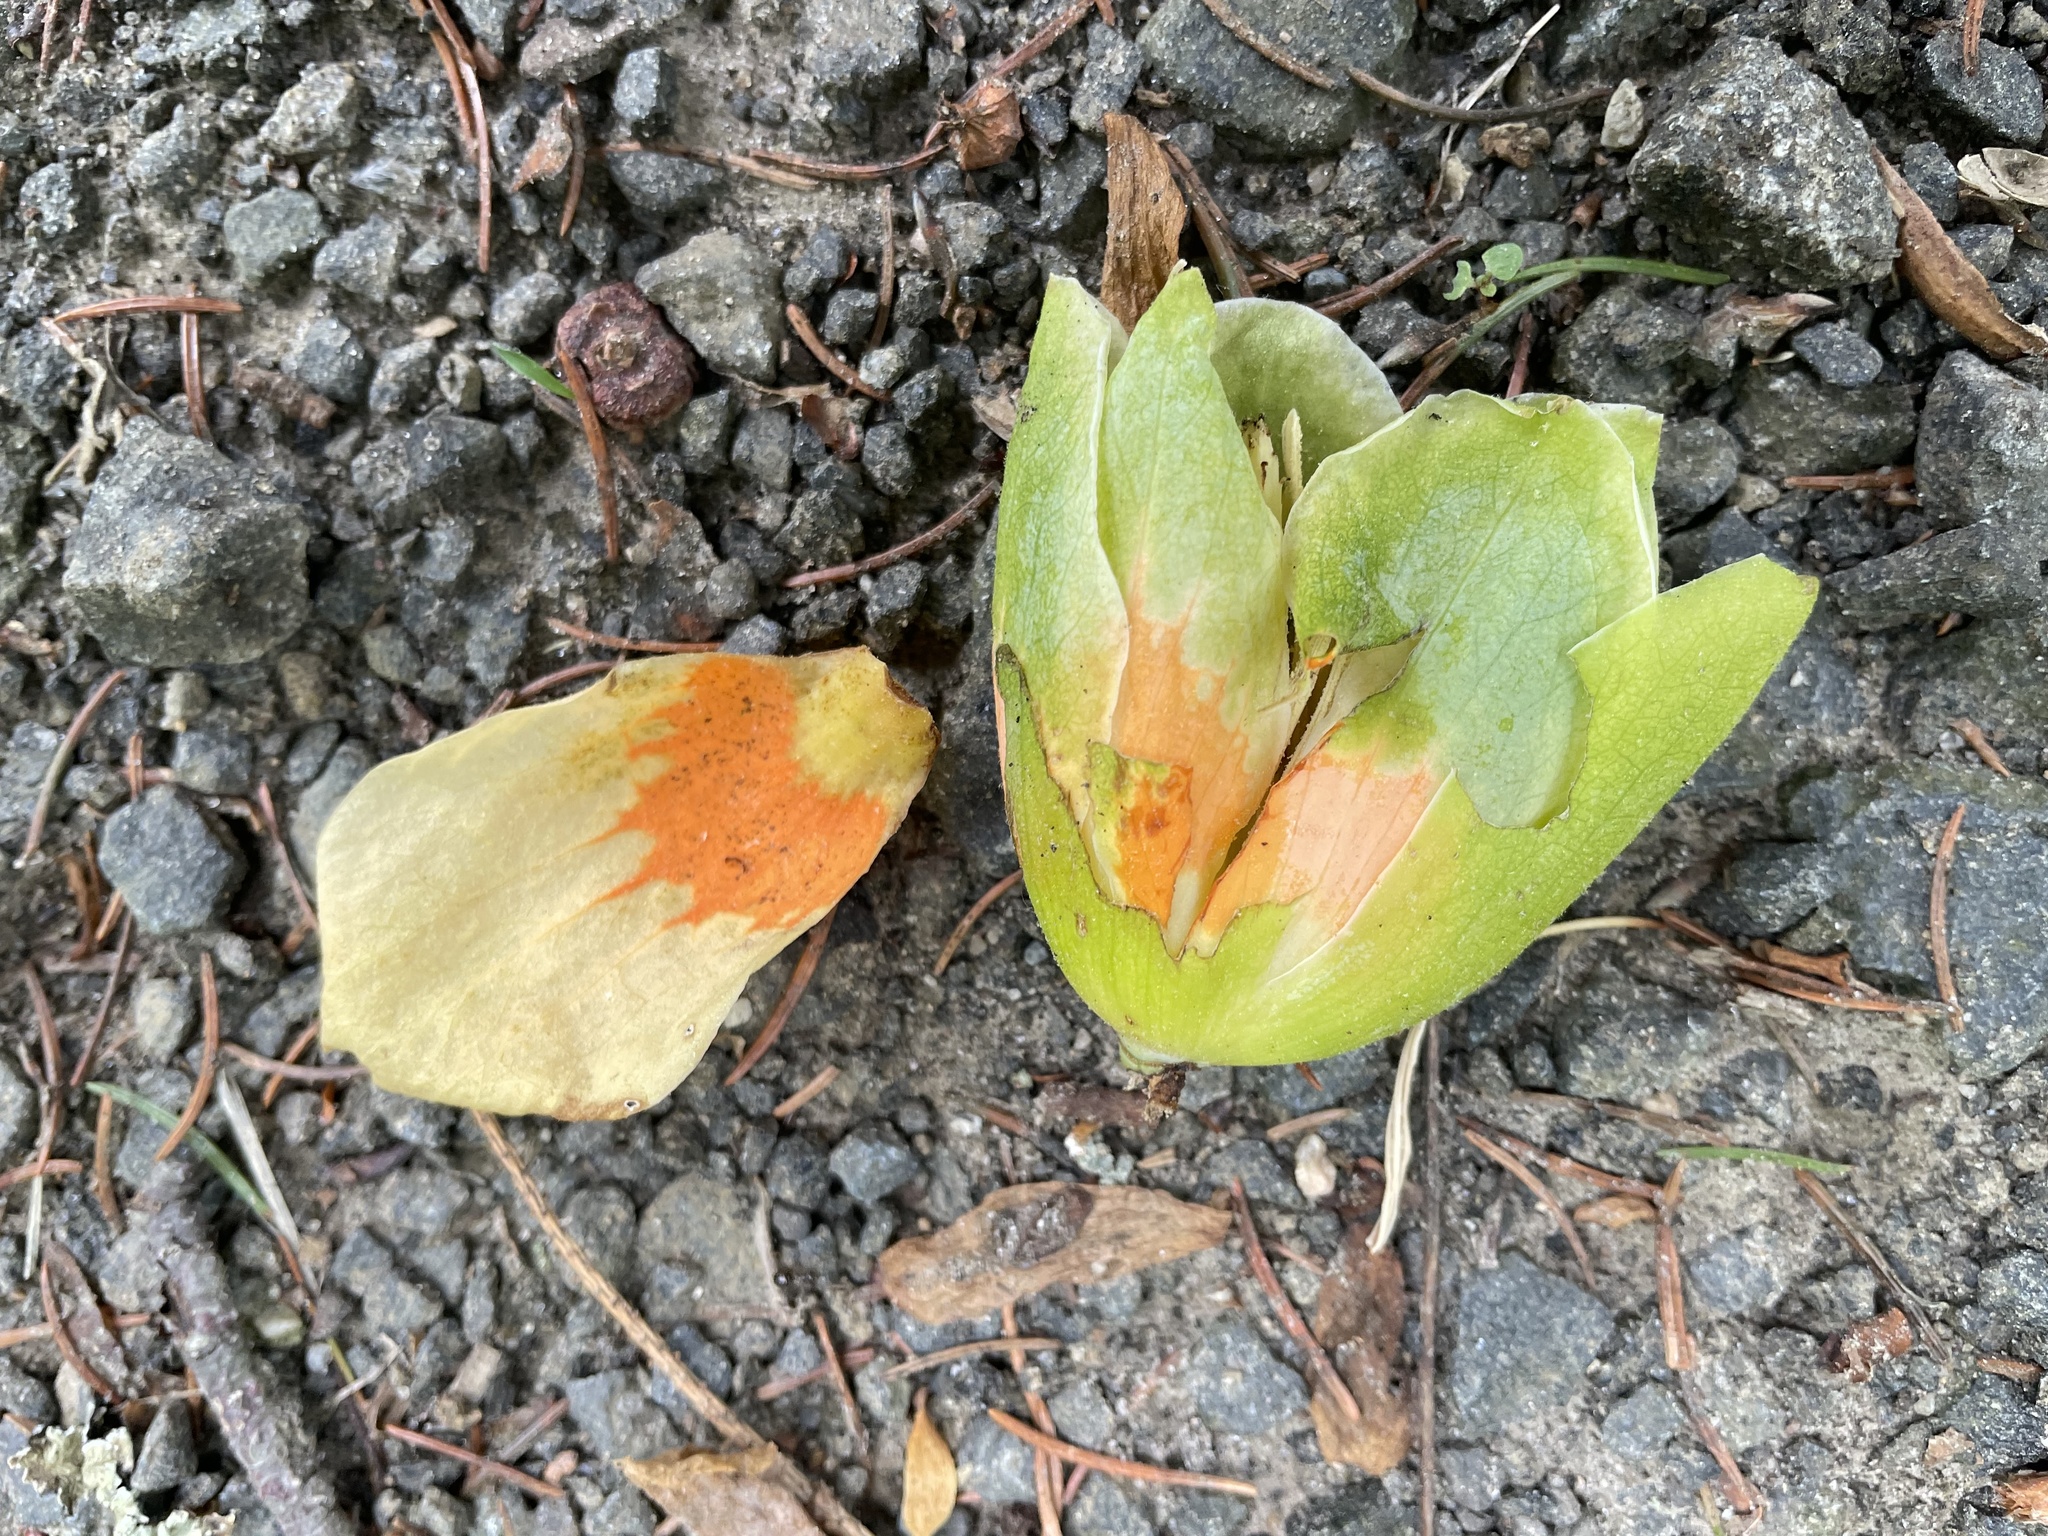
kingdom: Plantae
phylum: Tracheophyta
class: Magnoliopsida
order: Magnoliales
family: Magnoliaceae
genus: Liriodendron
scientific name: Liriodendron tulipifera
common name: Tulip tree
